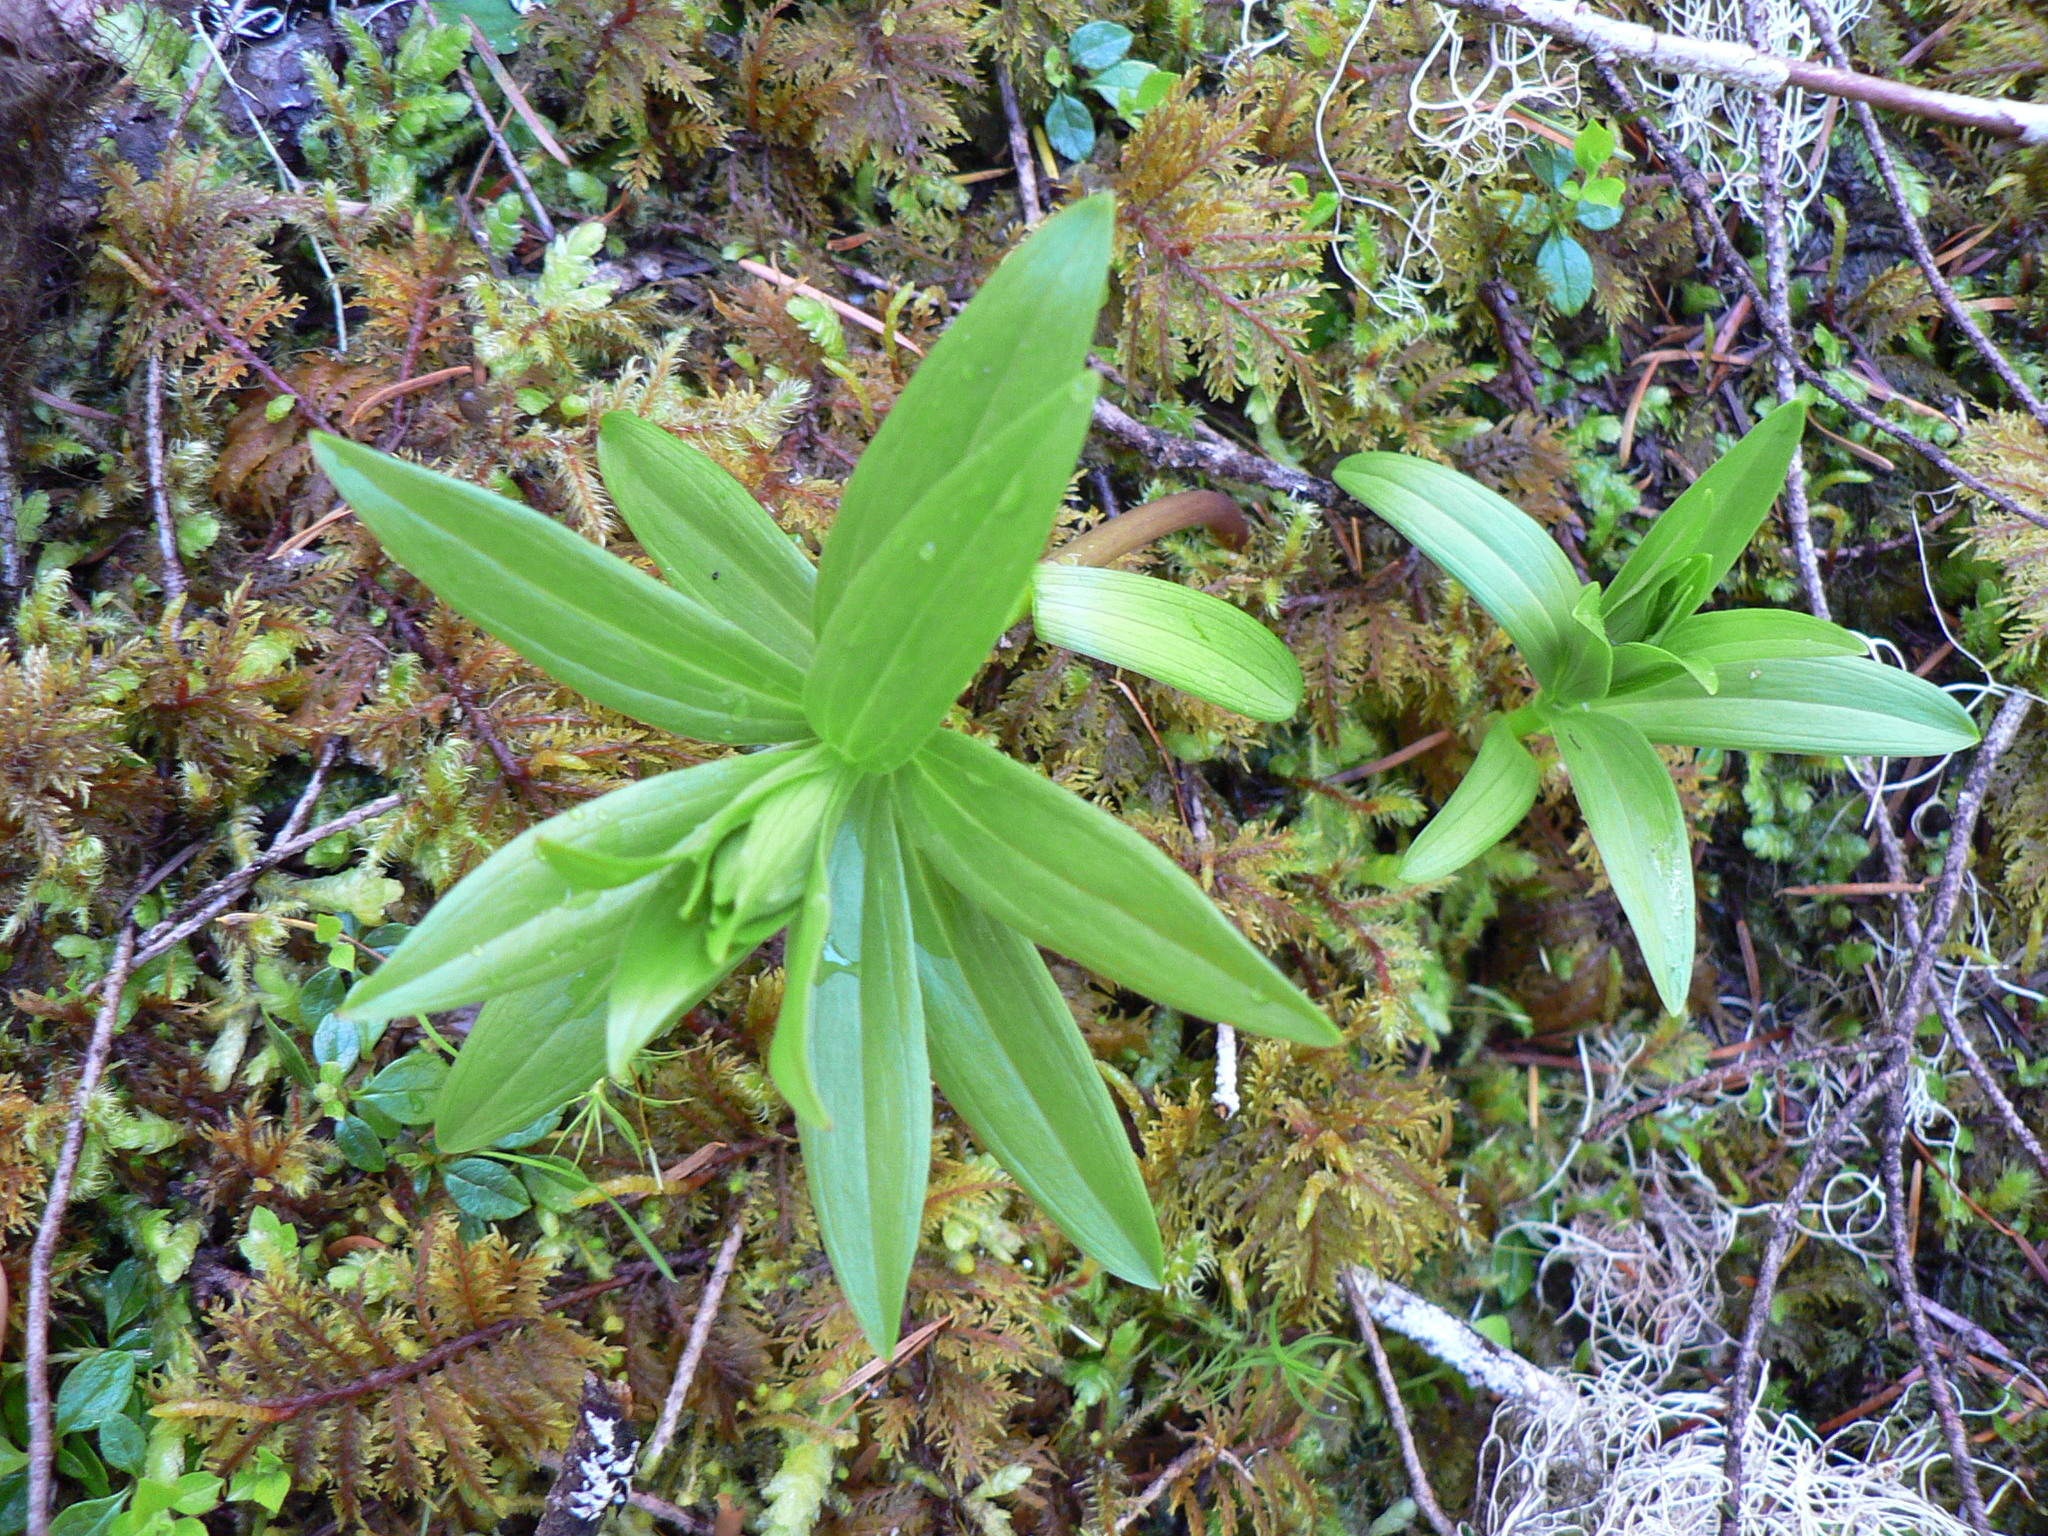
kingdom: Plantae
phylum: Tracheophyta
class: Liliopsida
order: Liliales
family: Liliaceae
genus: Fritillaria
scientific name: Fritillaria camschatcensis
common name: Kamchatka fritillary
